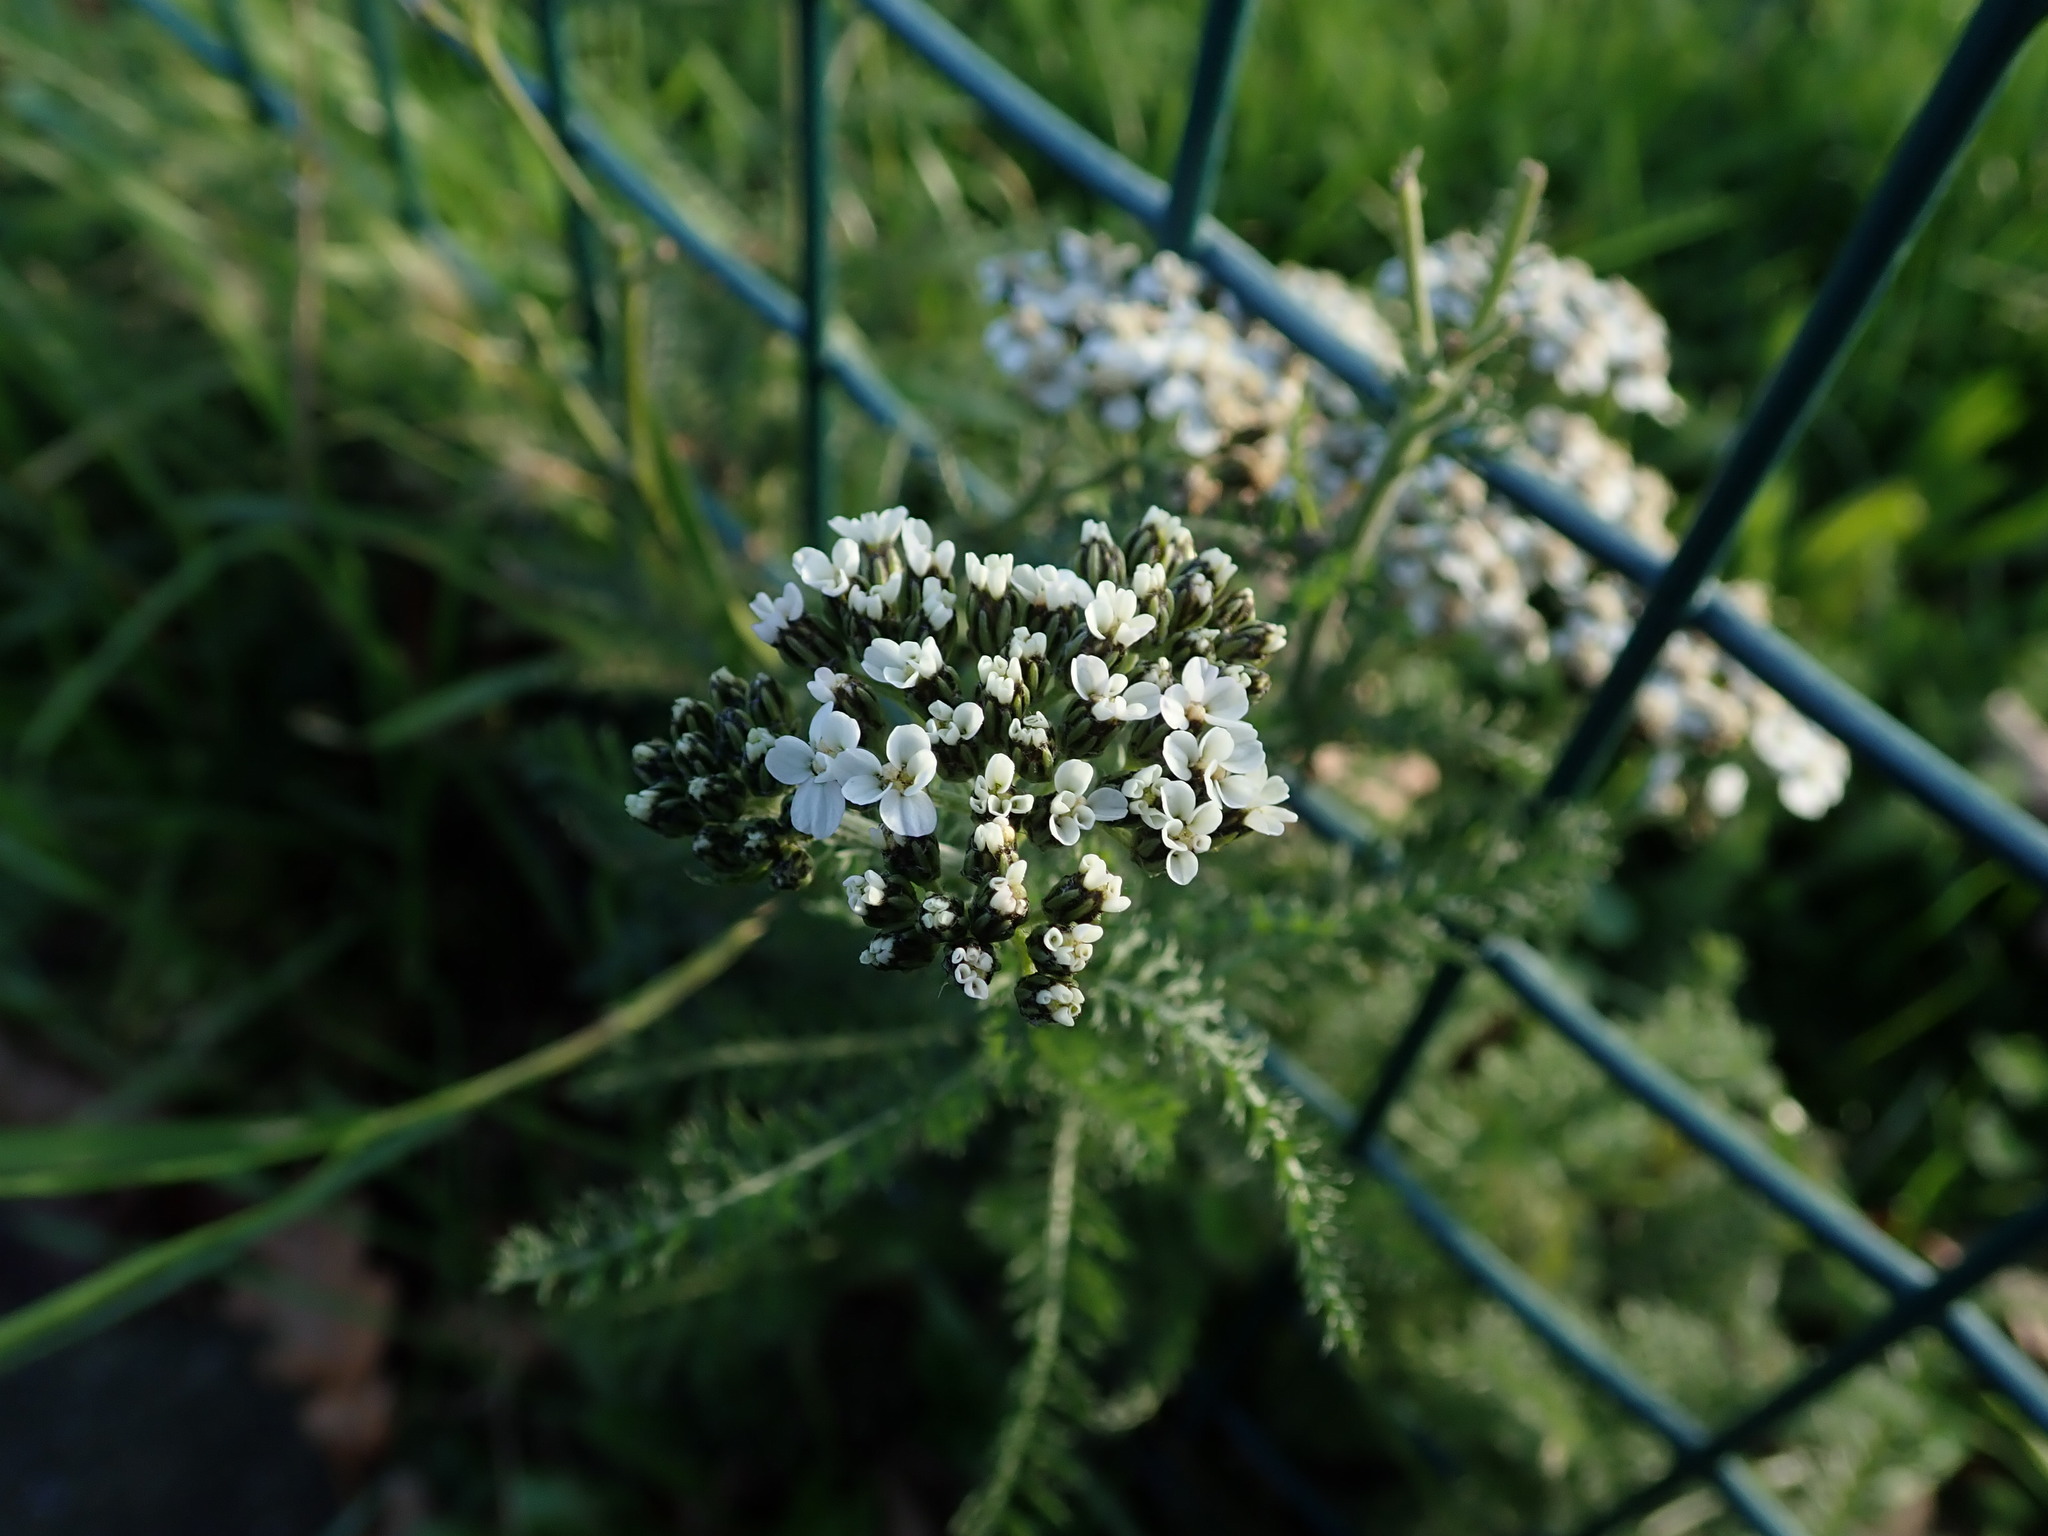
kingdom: Plantae
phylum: Tracheophyta
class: Magnoliopsida
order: Asterales
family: Asteraceae
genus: Achillea
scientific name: Achillea millefolium
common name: Yarrow
